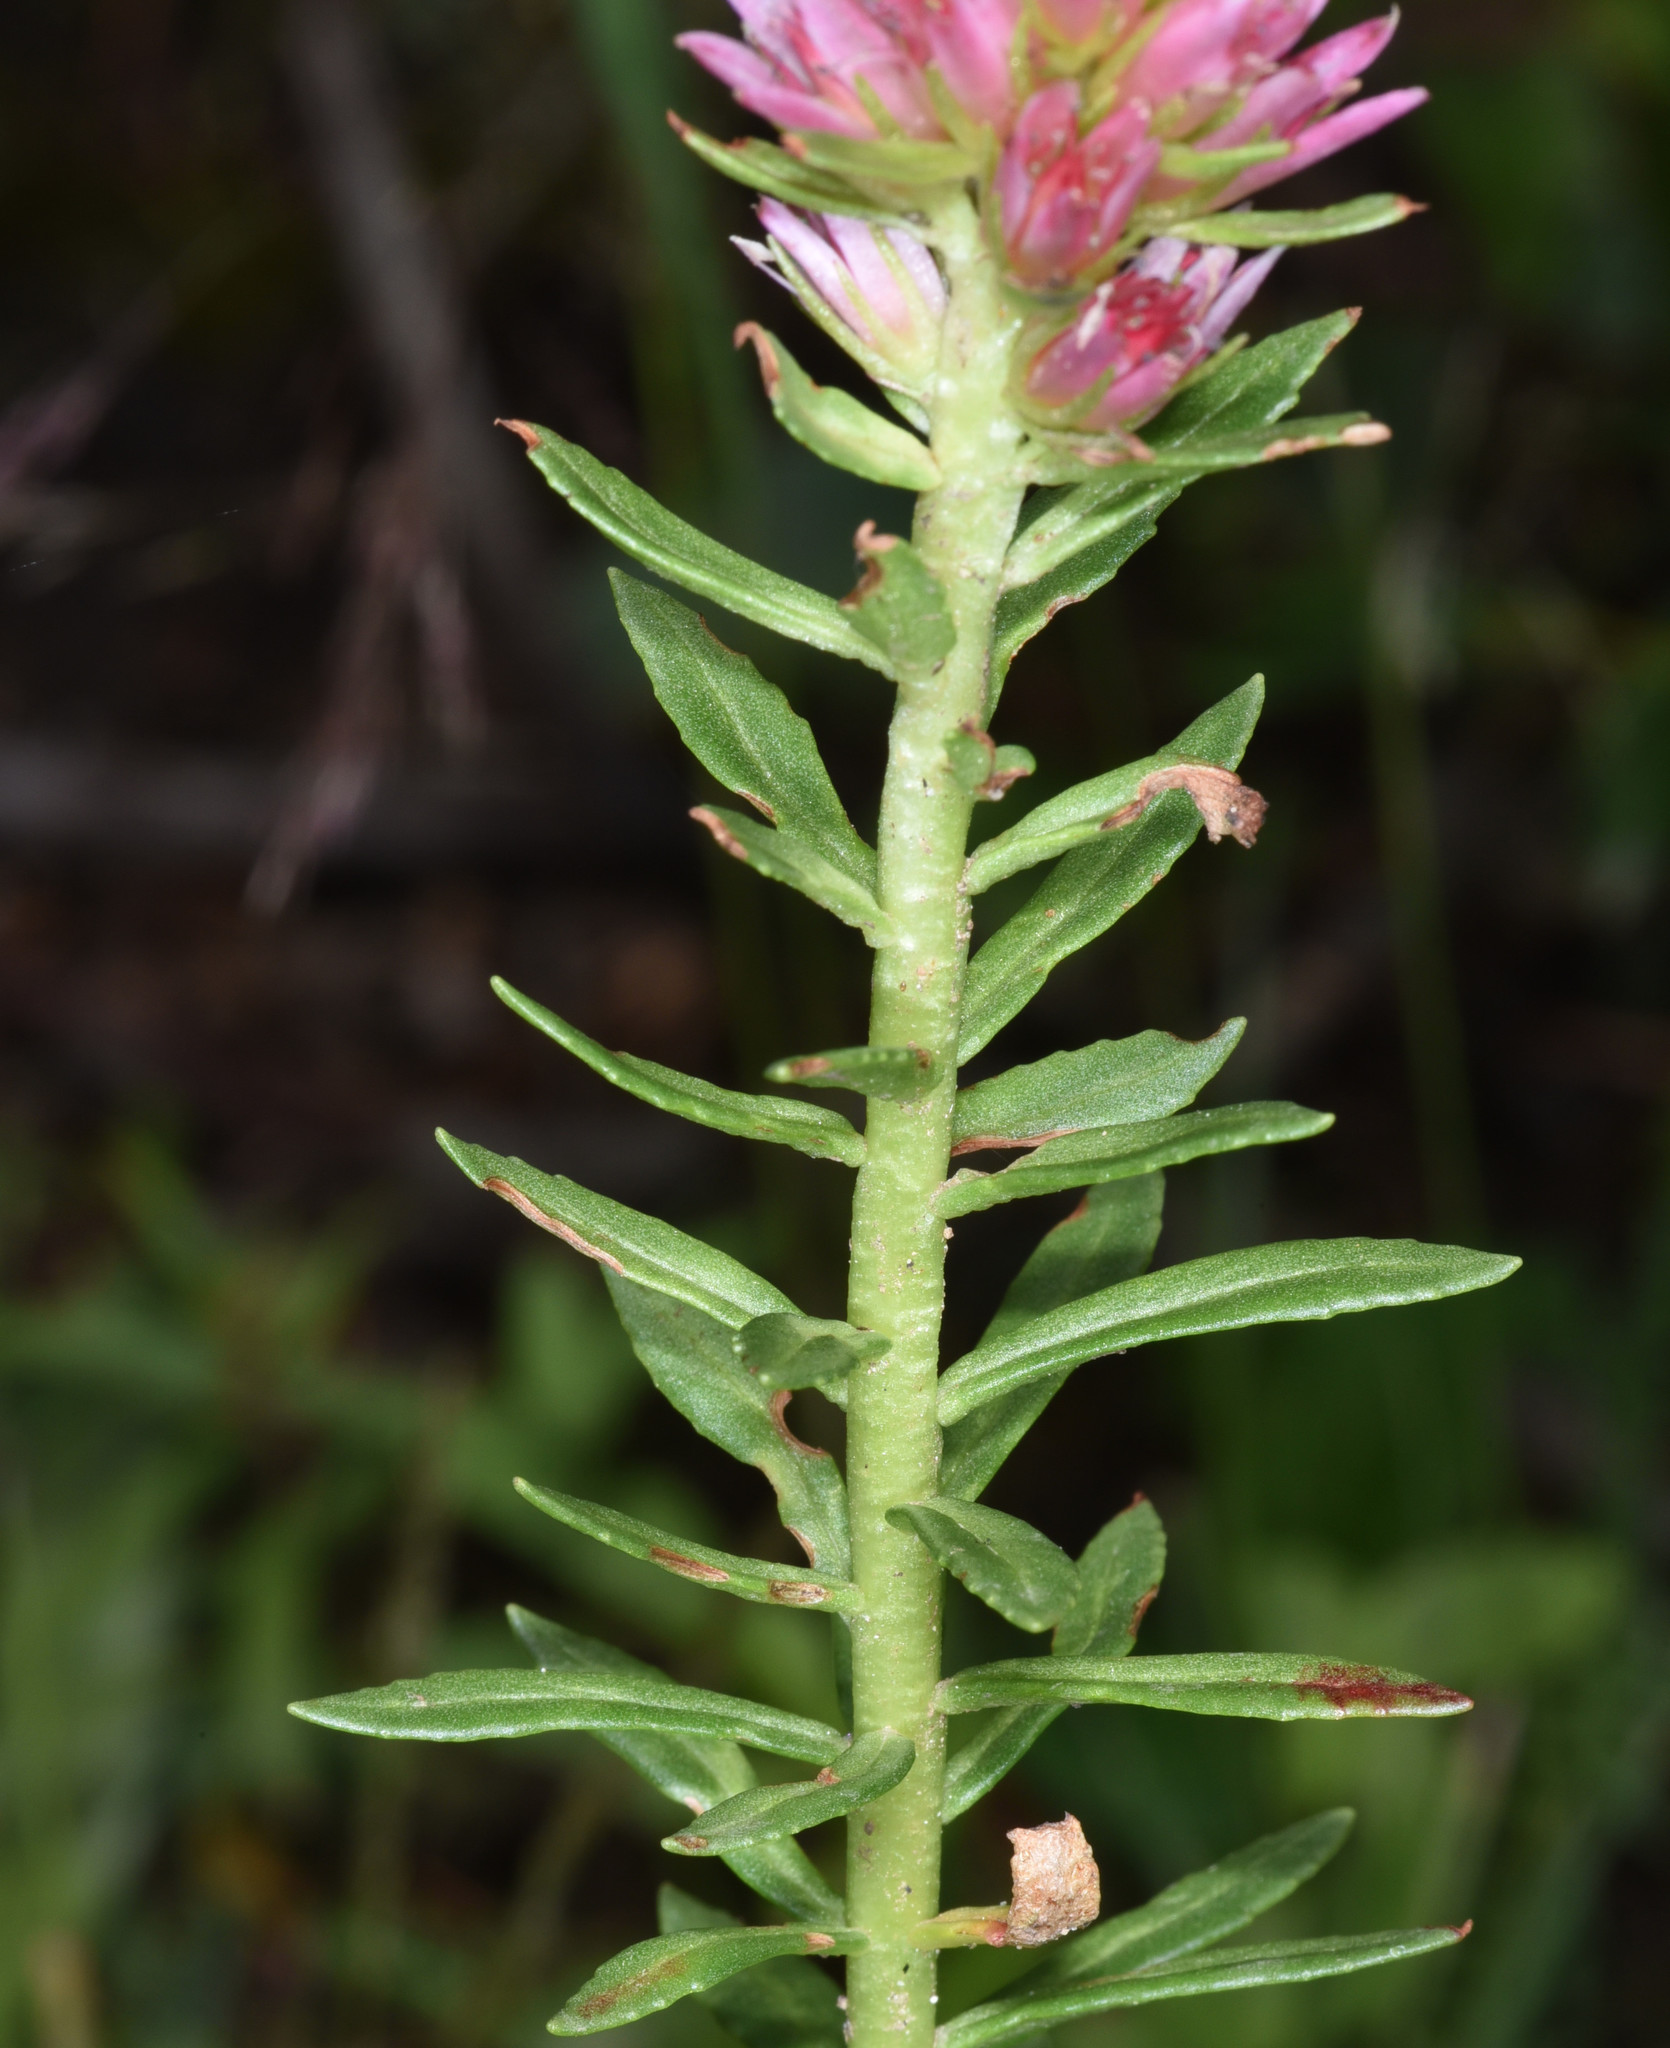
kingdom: Plantae
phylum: Tracheophyta
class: Magnoliopsida
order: Saxifragales
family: Crassulaceae
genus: Rhodiola
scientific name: Rhodiola rhodantha
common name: Red orpine
